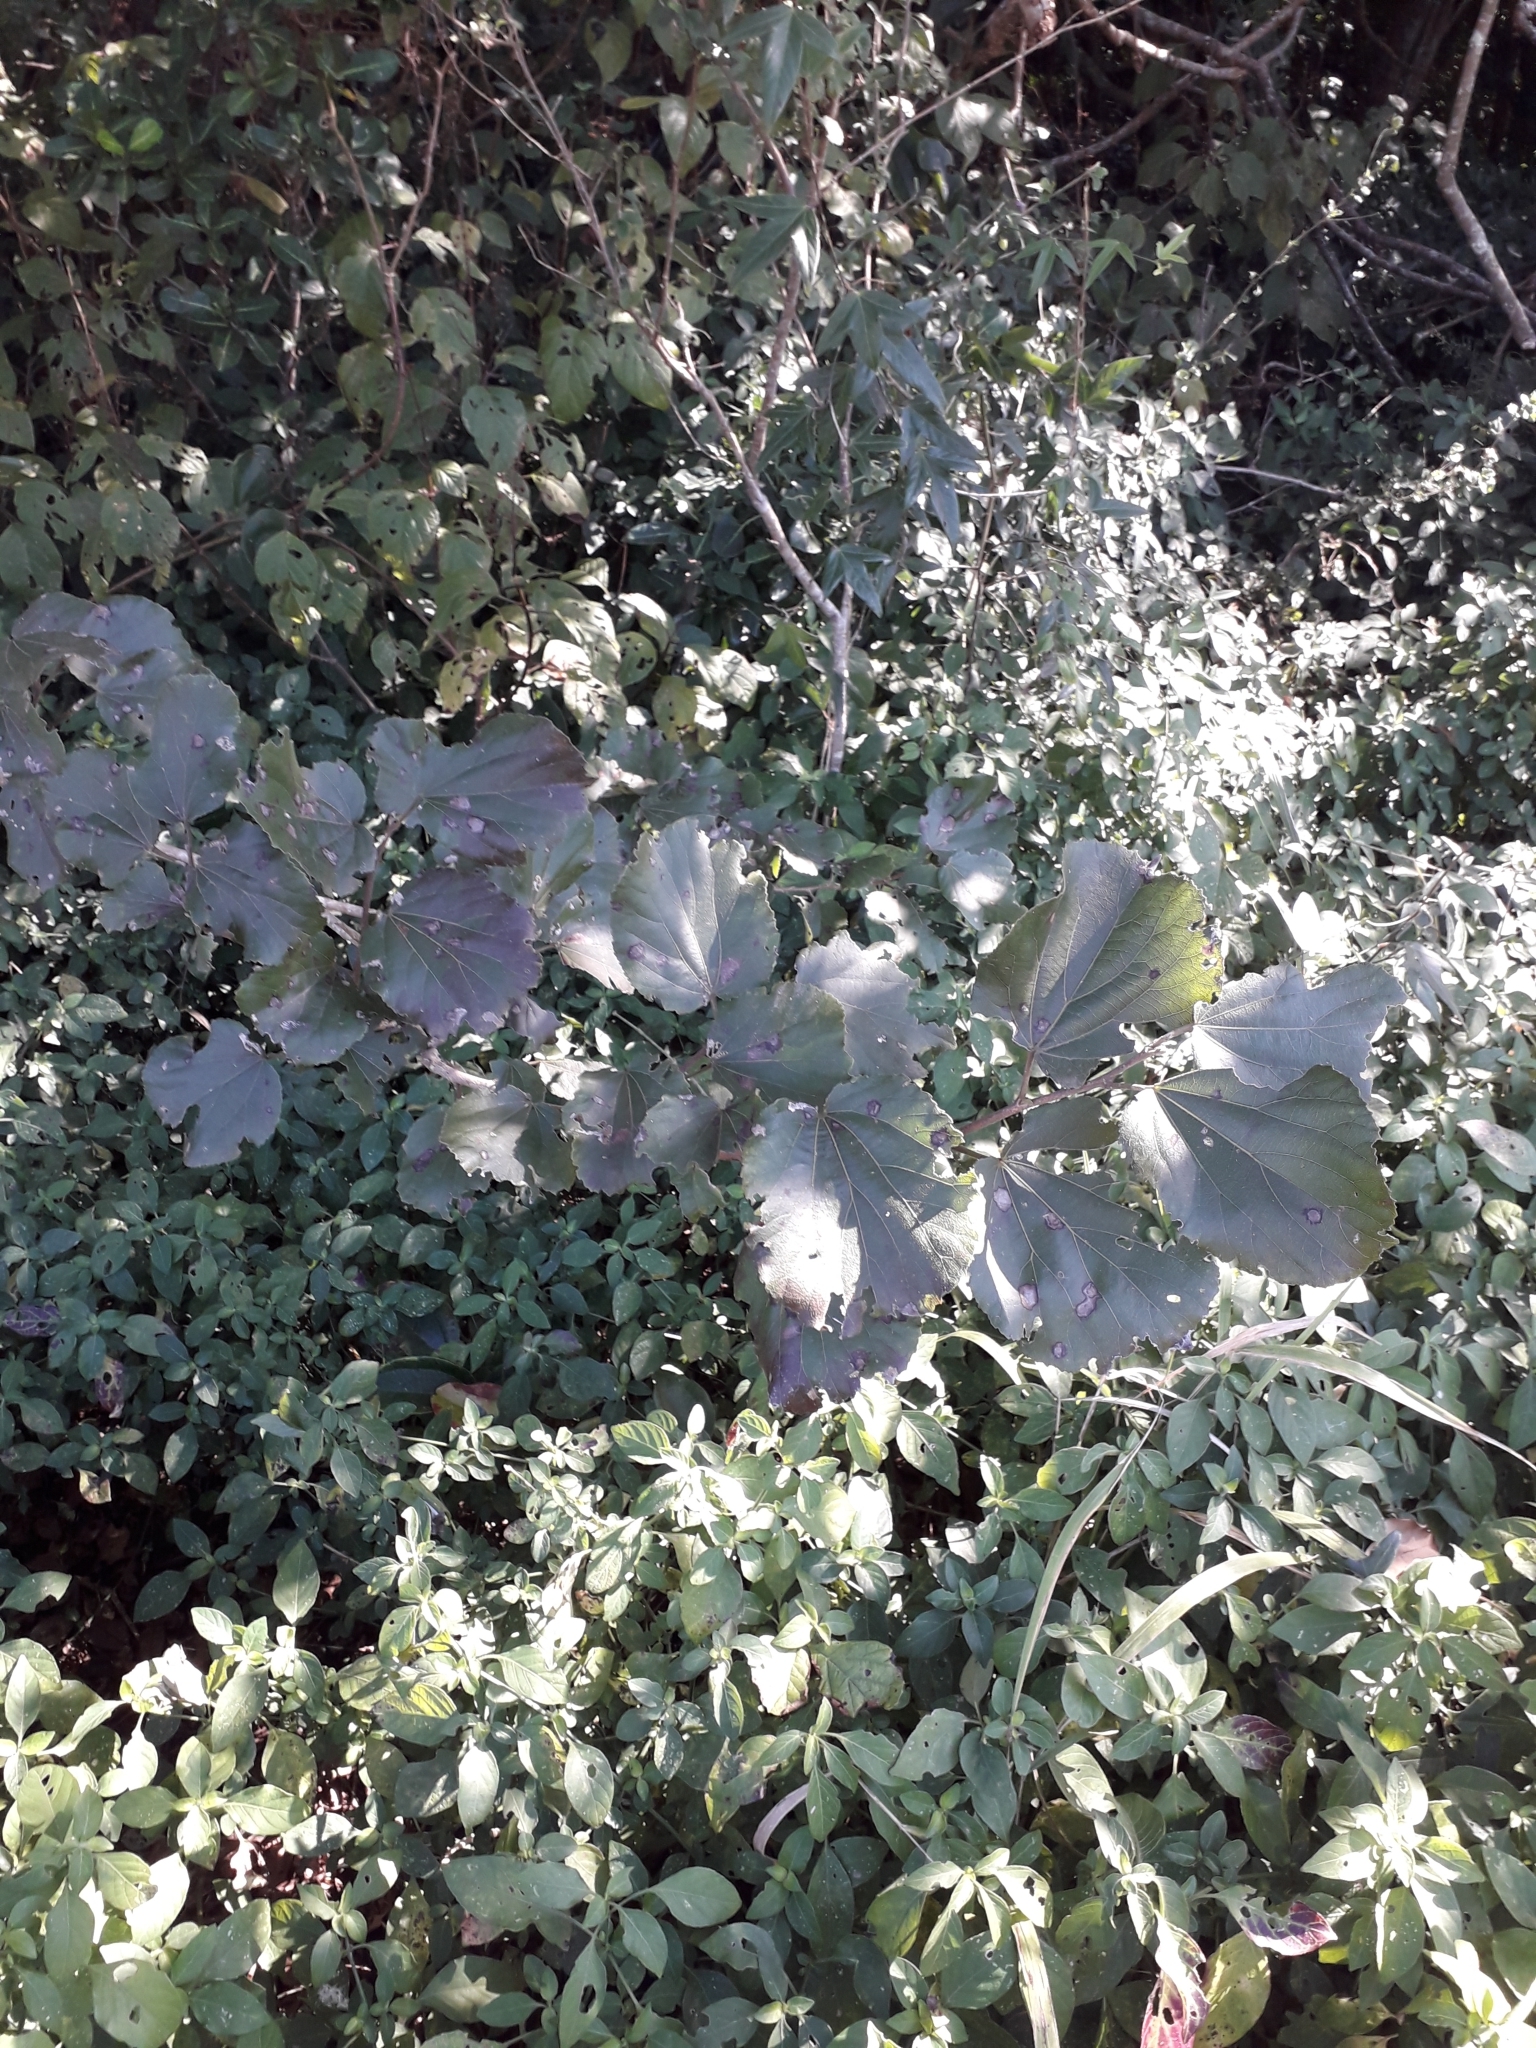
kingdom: Plantae
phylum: Tracheophyta
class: Magnoliopsida
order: Malpighiales
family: Salicaceae
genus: Trimeria
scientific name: Trimeria grandifolia
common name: Wild mulberry
